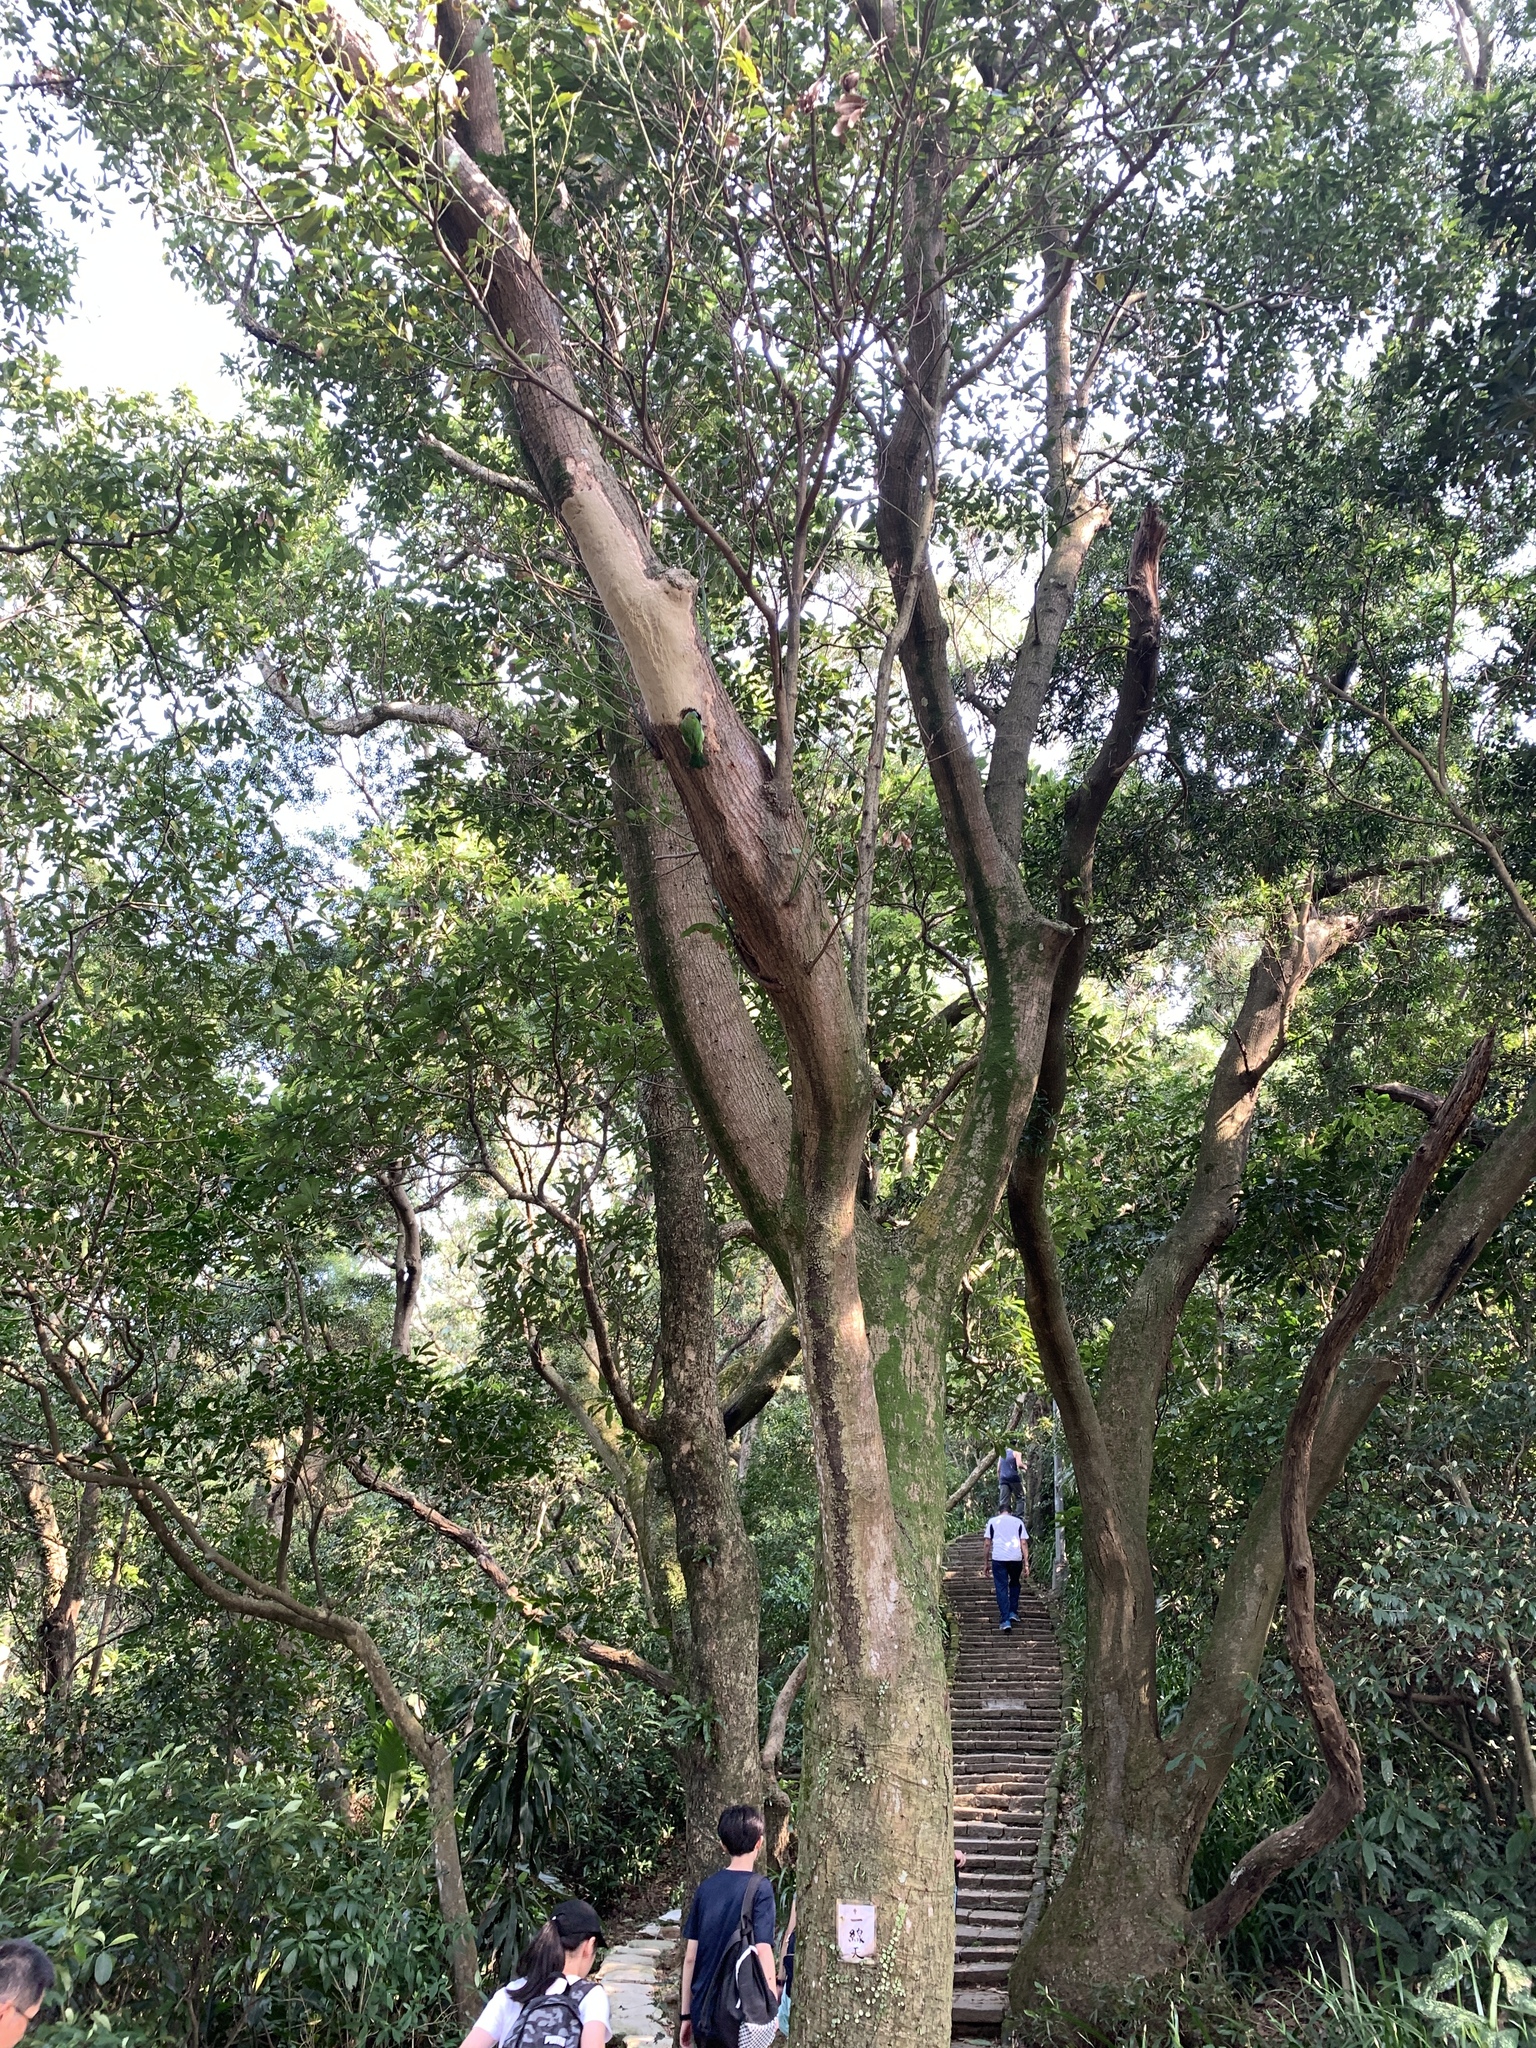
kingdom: Animalia
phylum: Chordata
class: Aves
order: Piciformes
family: Megalaimidae
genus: Psilopogon
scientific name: Psilopogon nuchalis
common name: Taiwan barbet
